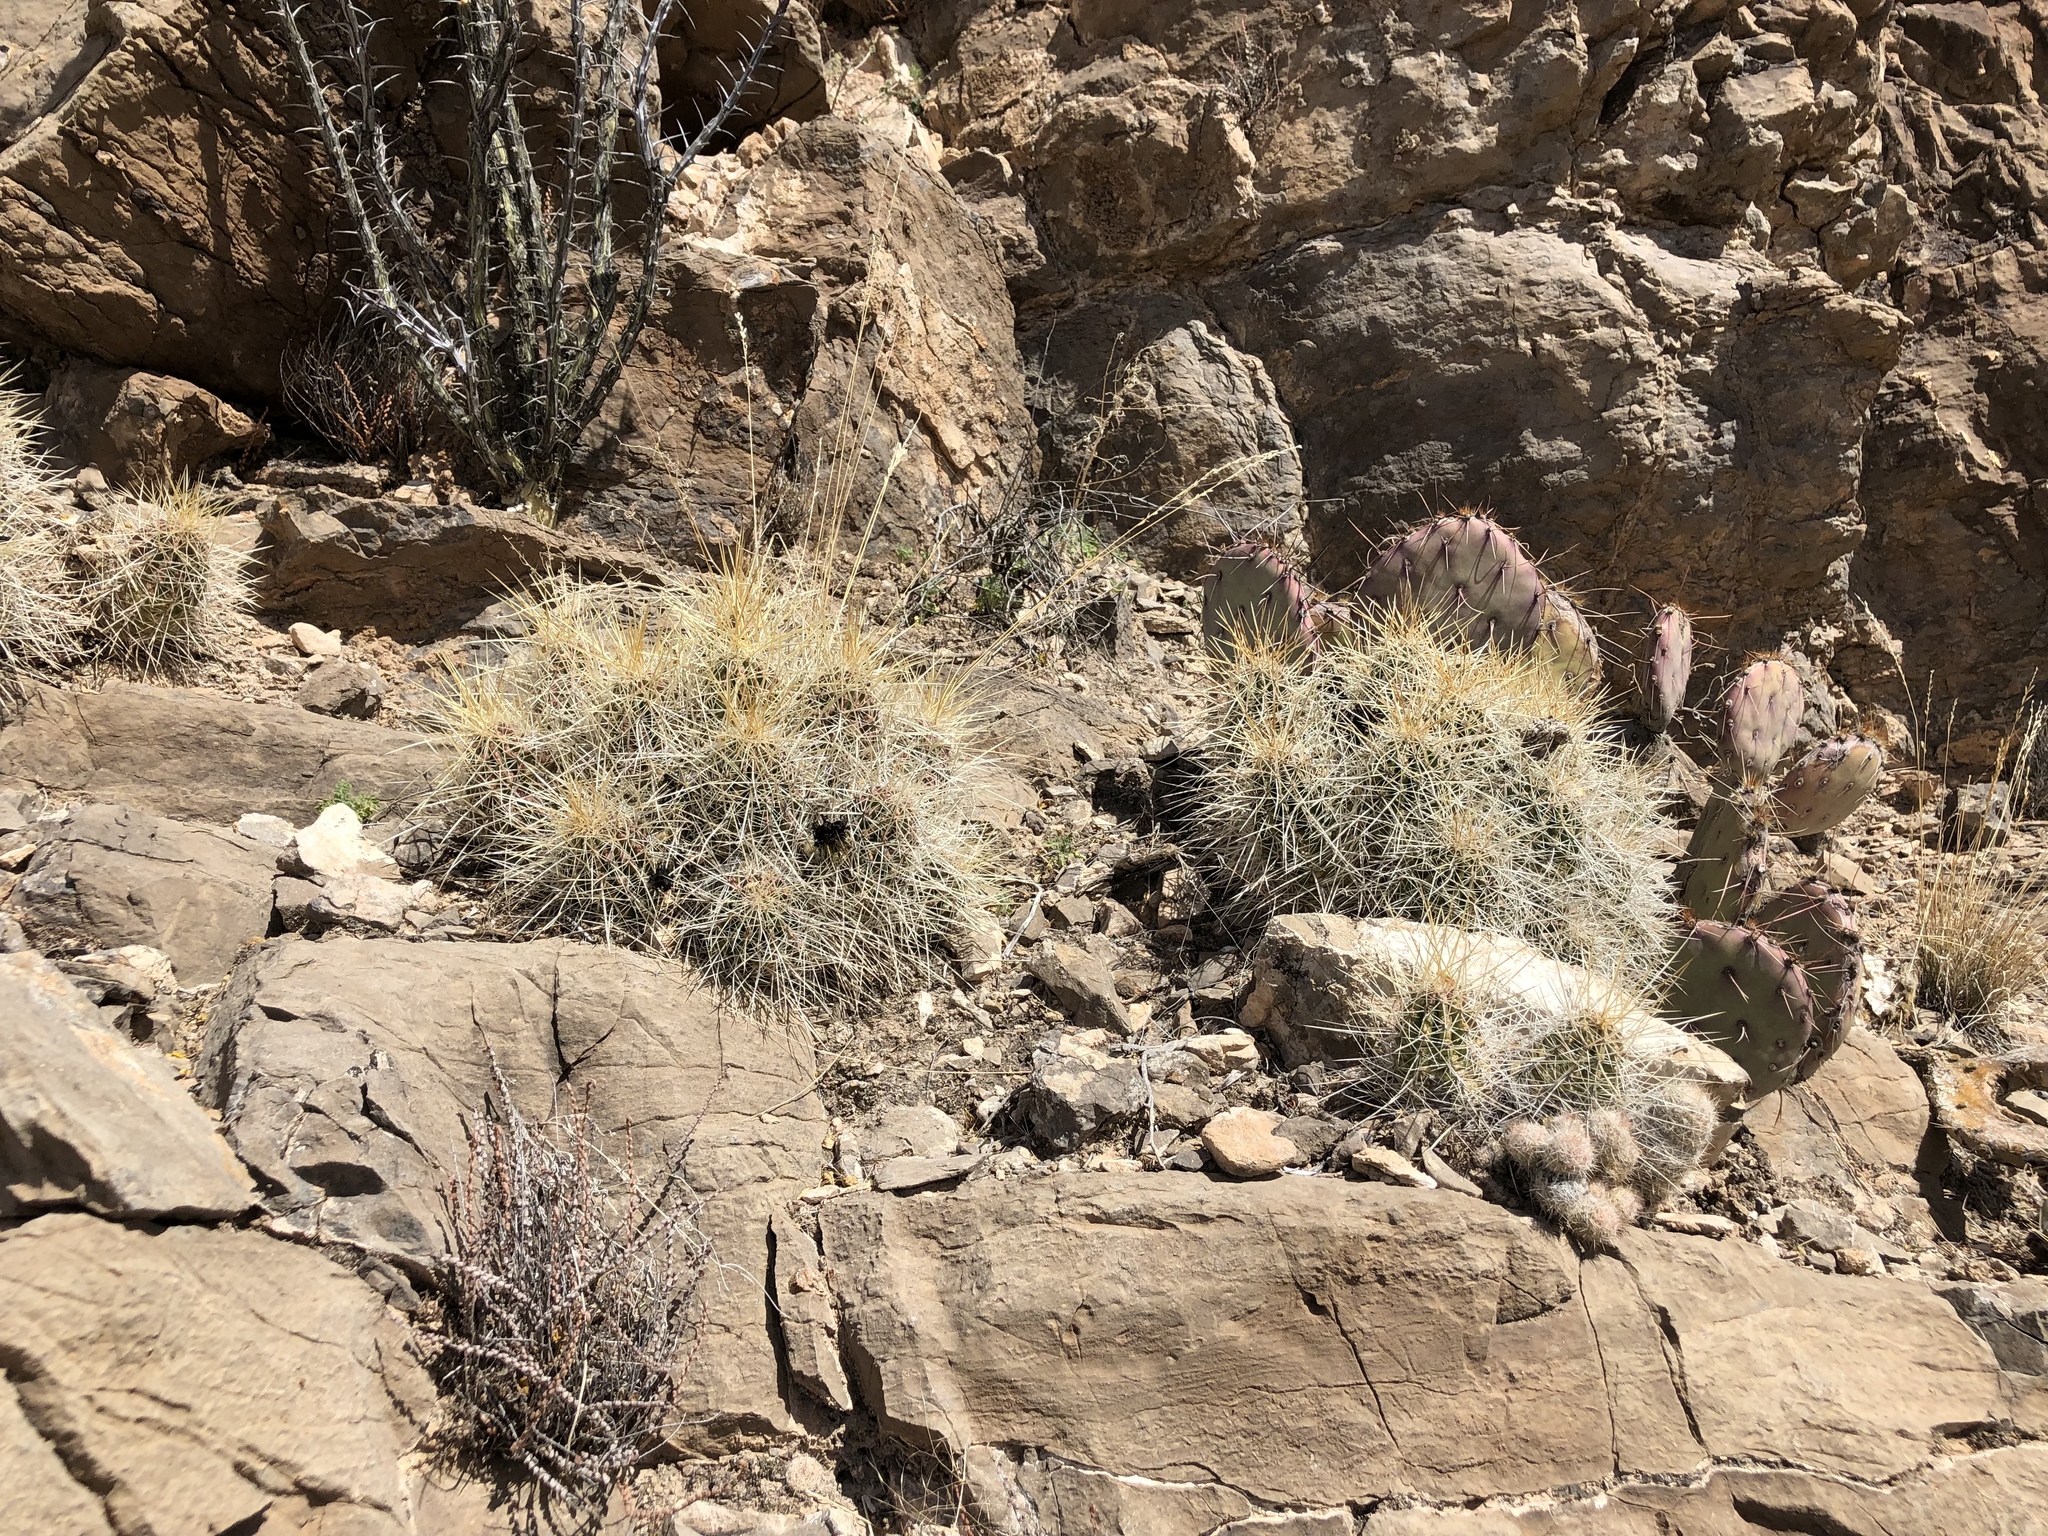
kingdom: Plantae
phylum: Tracheophyta
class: Magnoliopsida
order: Caryophyllales
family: Cactaceae
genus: Echinocereus
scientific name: Echinocereus stramineus
